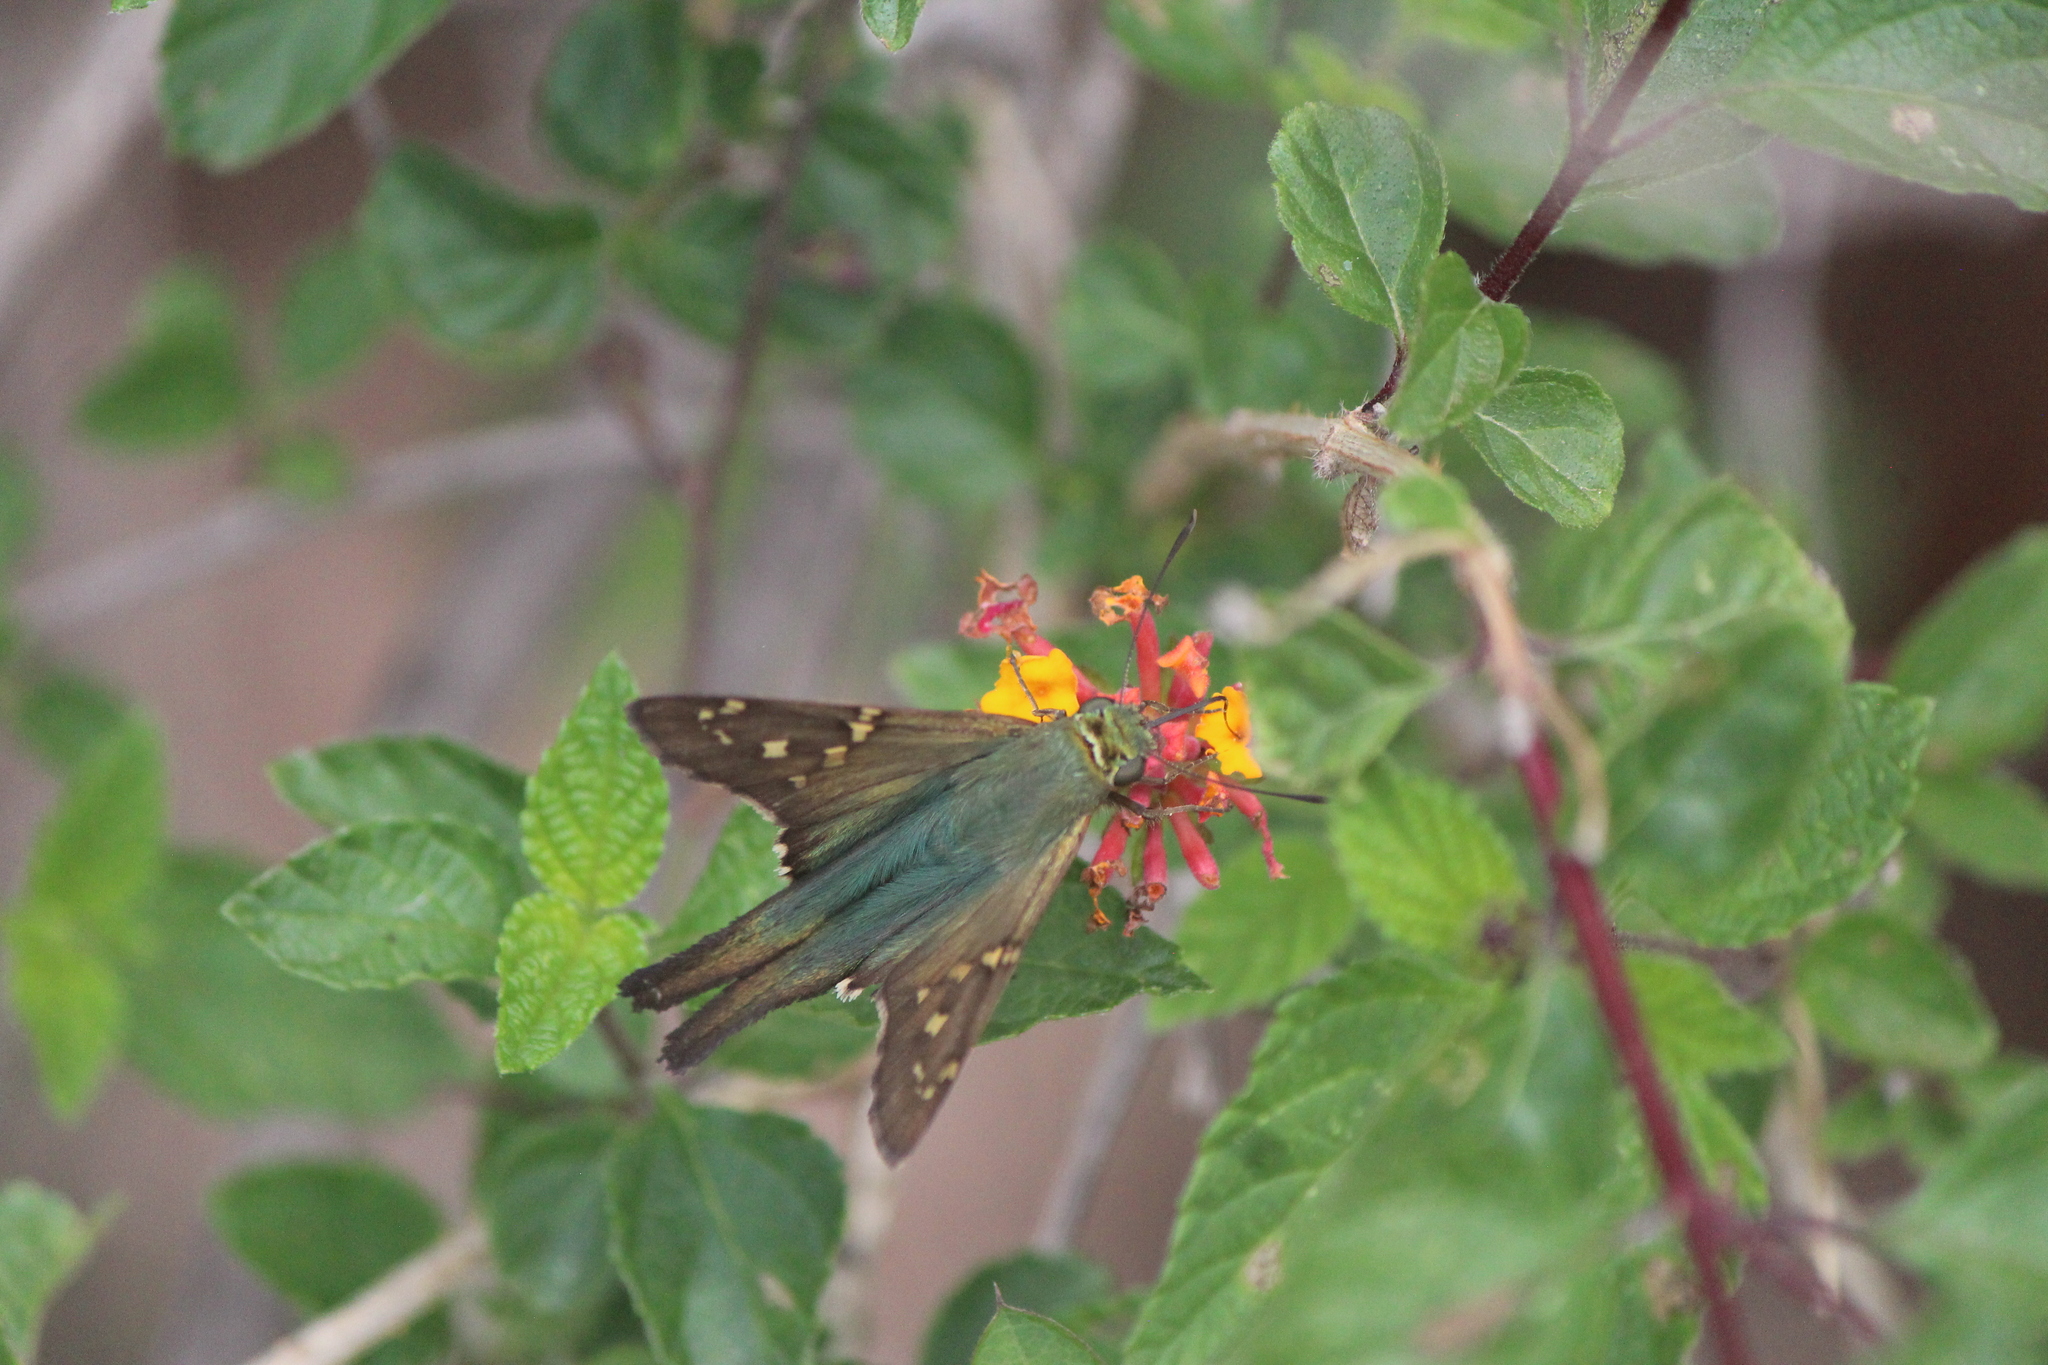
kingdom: Animalia
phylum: Arthropoda
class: Insecta
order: Lepidoptera
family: Hesperiidae
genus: Urbanus
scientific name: Urbanus proteus
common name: Long-tailed skipper
